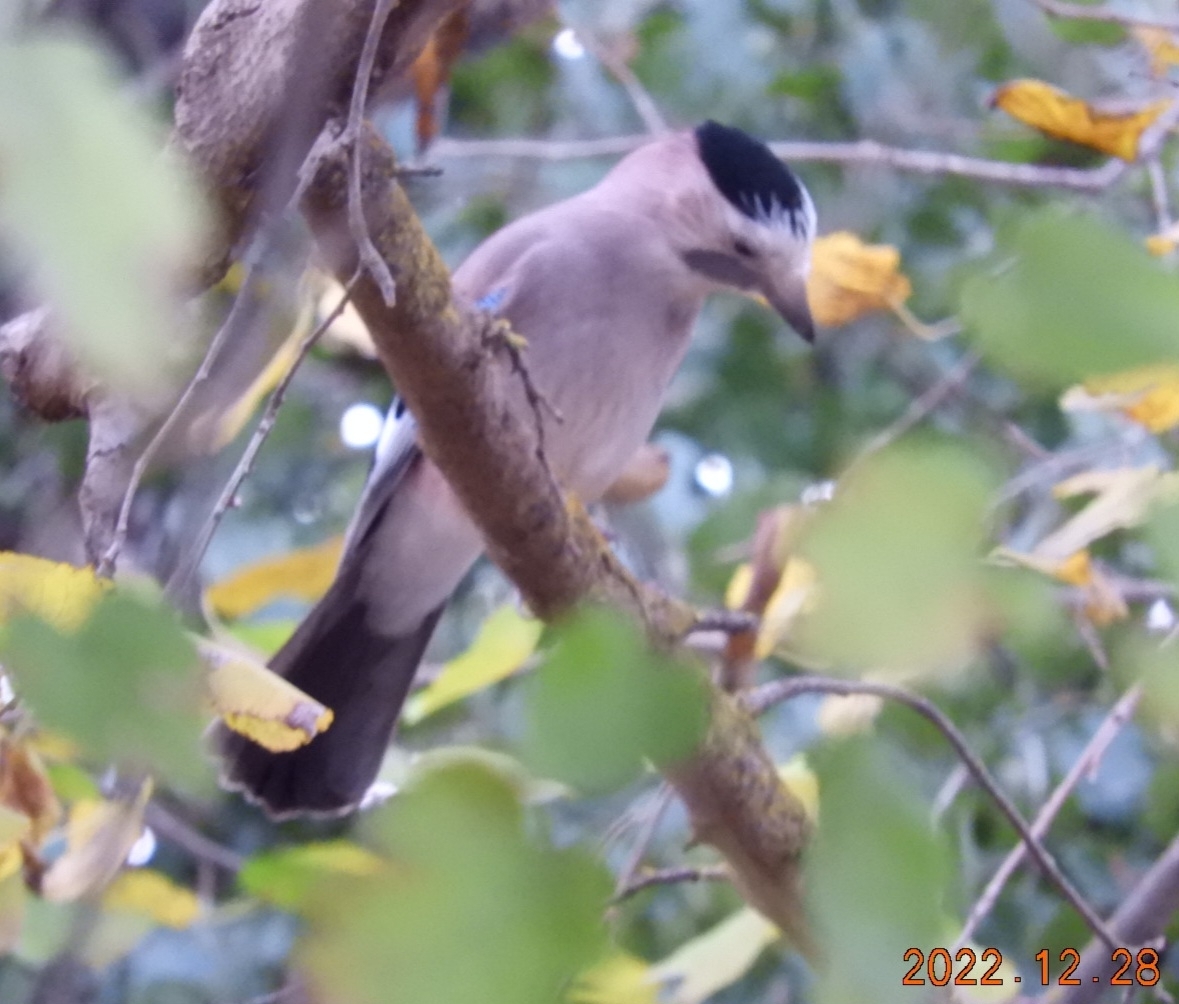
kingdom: Animalia
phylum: Chordata
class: Aves
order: Passeriformes
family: Corvidae
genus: Garrulus
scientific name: Garrulus glandarius
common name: Eurasian jay
